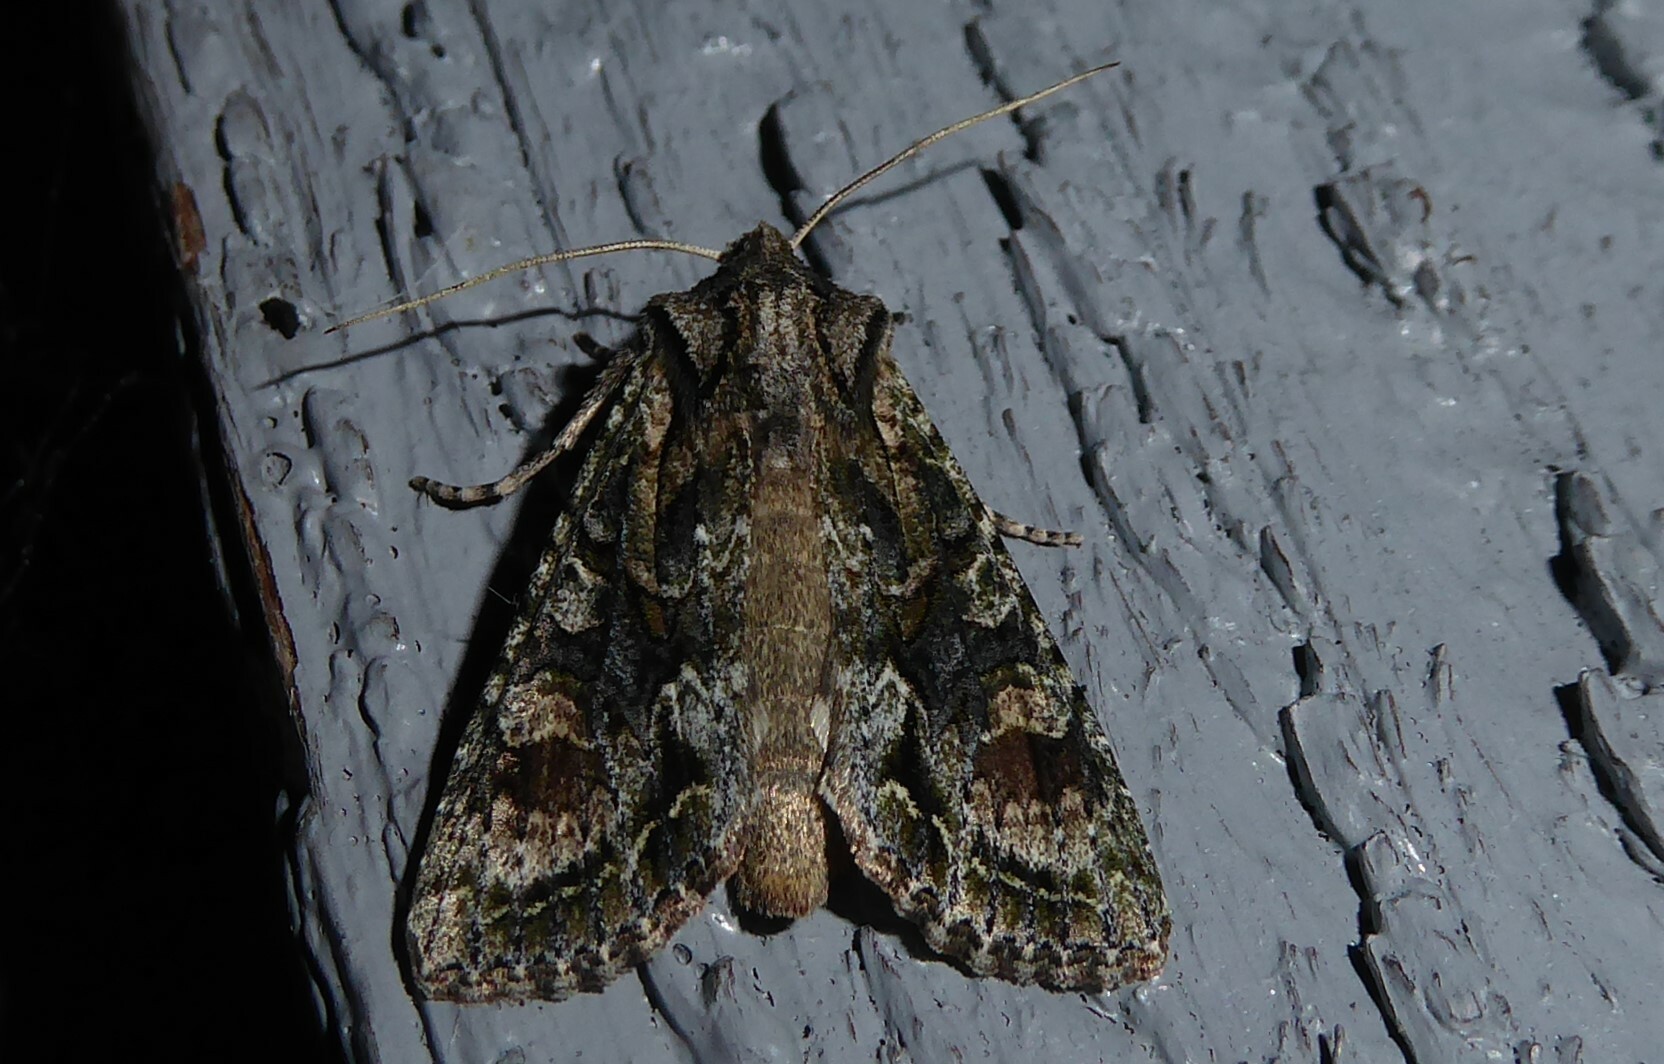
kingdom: Animalia
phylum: Arthropoda
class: Insecta
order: Lepidoptera
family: Noctuidae
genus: Ichneutica
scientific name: Ichneutica mutans
